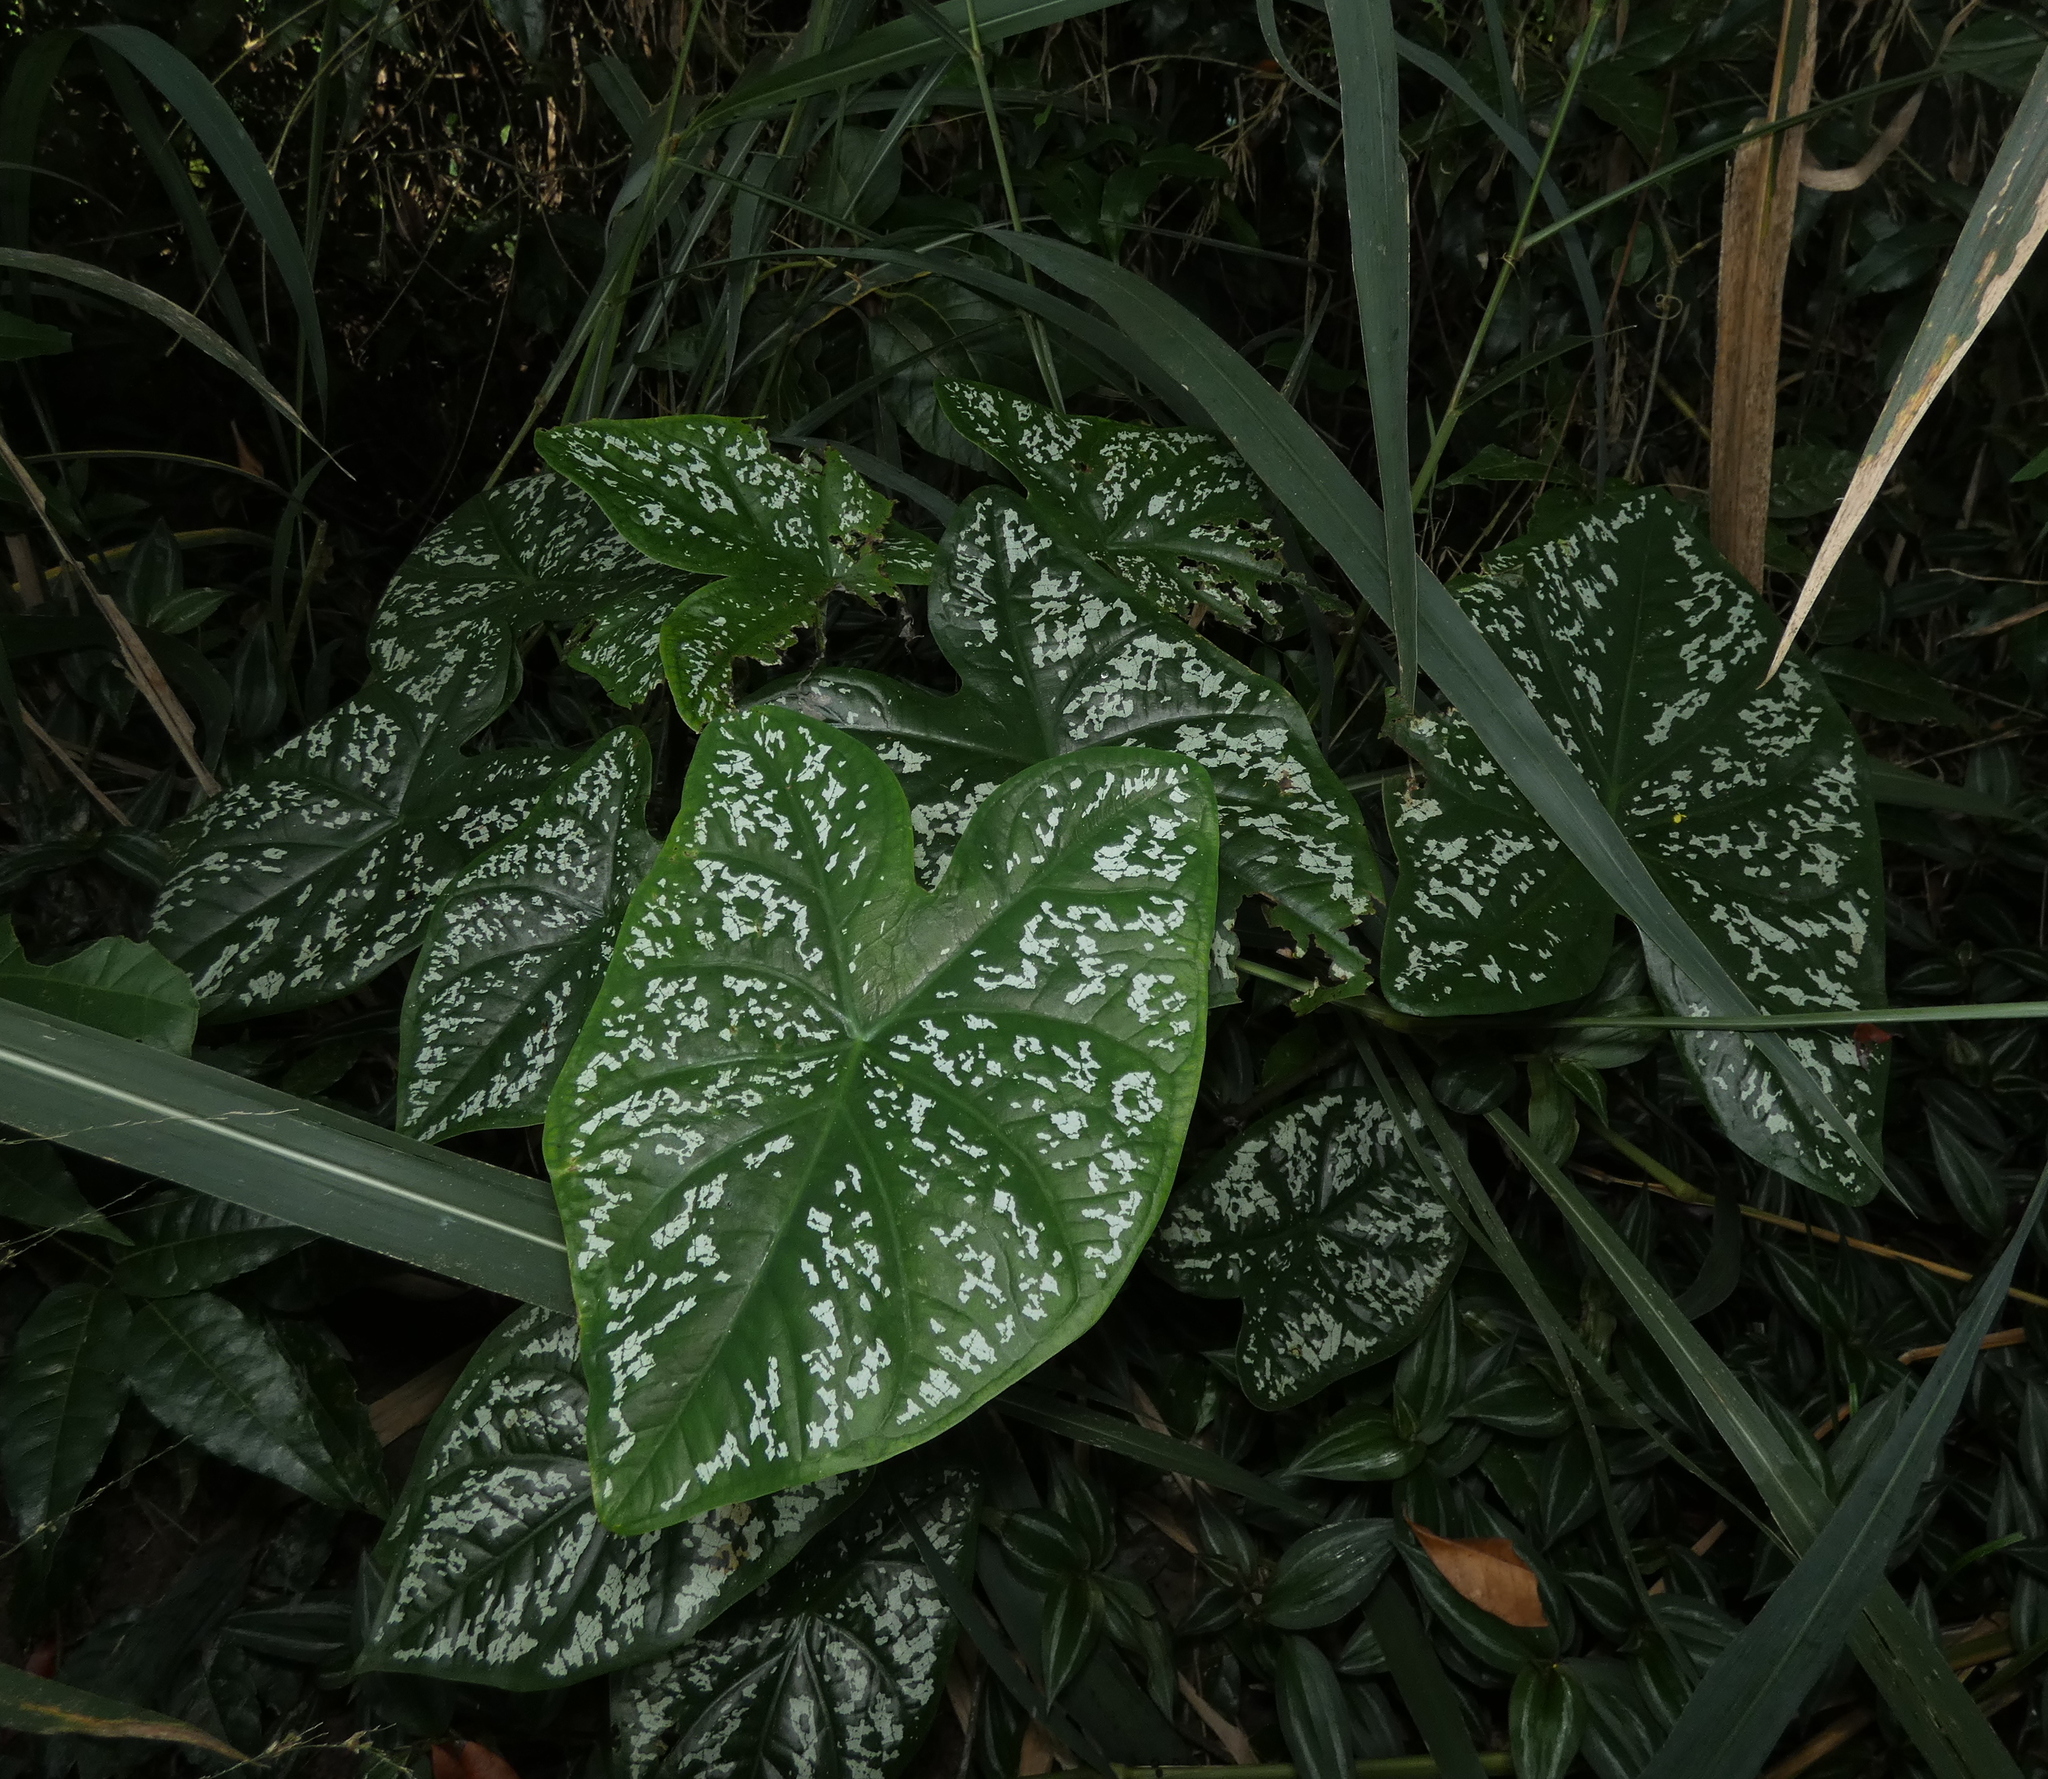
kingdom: Plantae
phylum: Tracheophyta
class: Liliopsida
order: Alismatales
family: Araceae
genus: Caladium
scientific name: Caladium bicolor
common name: Artist's pallet
